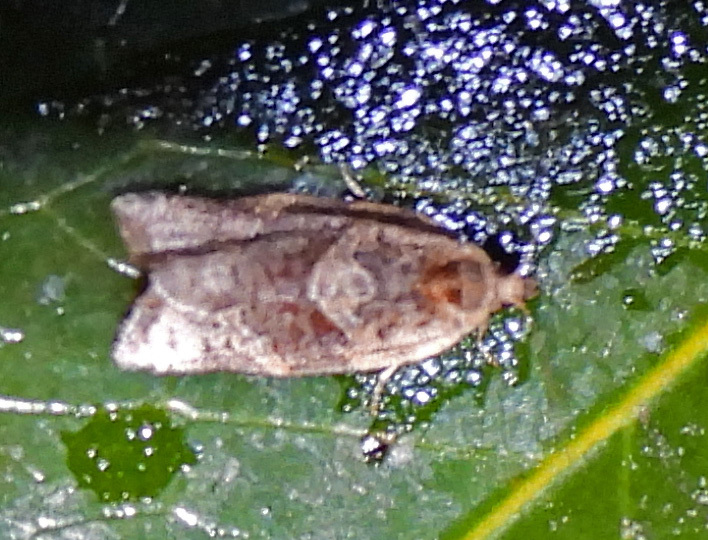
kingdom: Animalia
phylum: Arthropoda
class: Insecta
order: Lepidoptera
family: Tortricidae
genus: Argyrotaenia
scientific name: Argyrotaenia velutinana
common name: Red-banded leafroller moth
